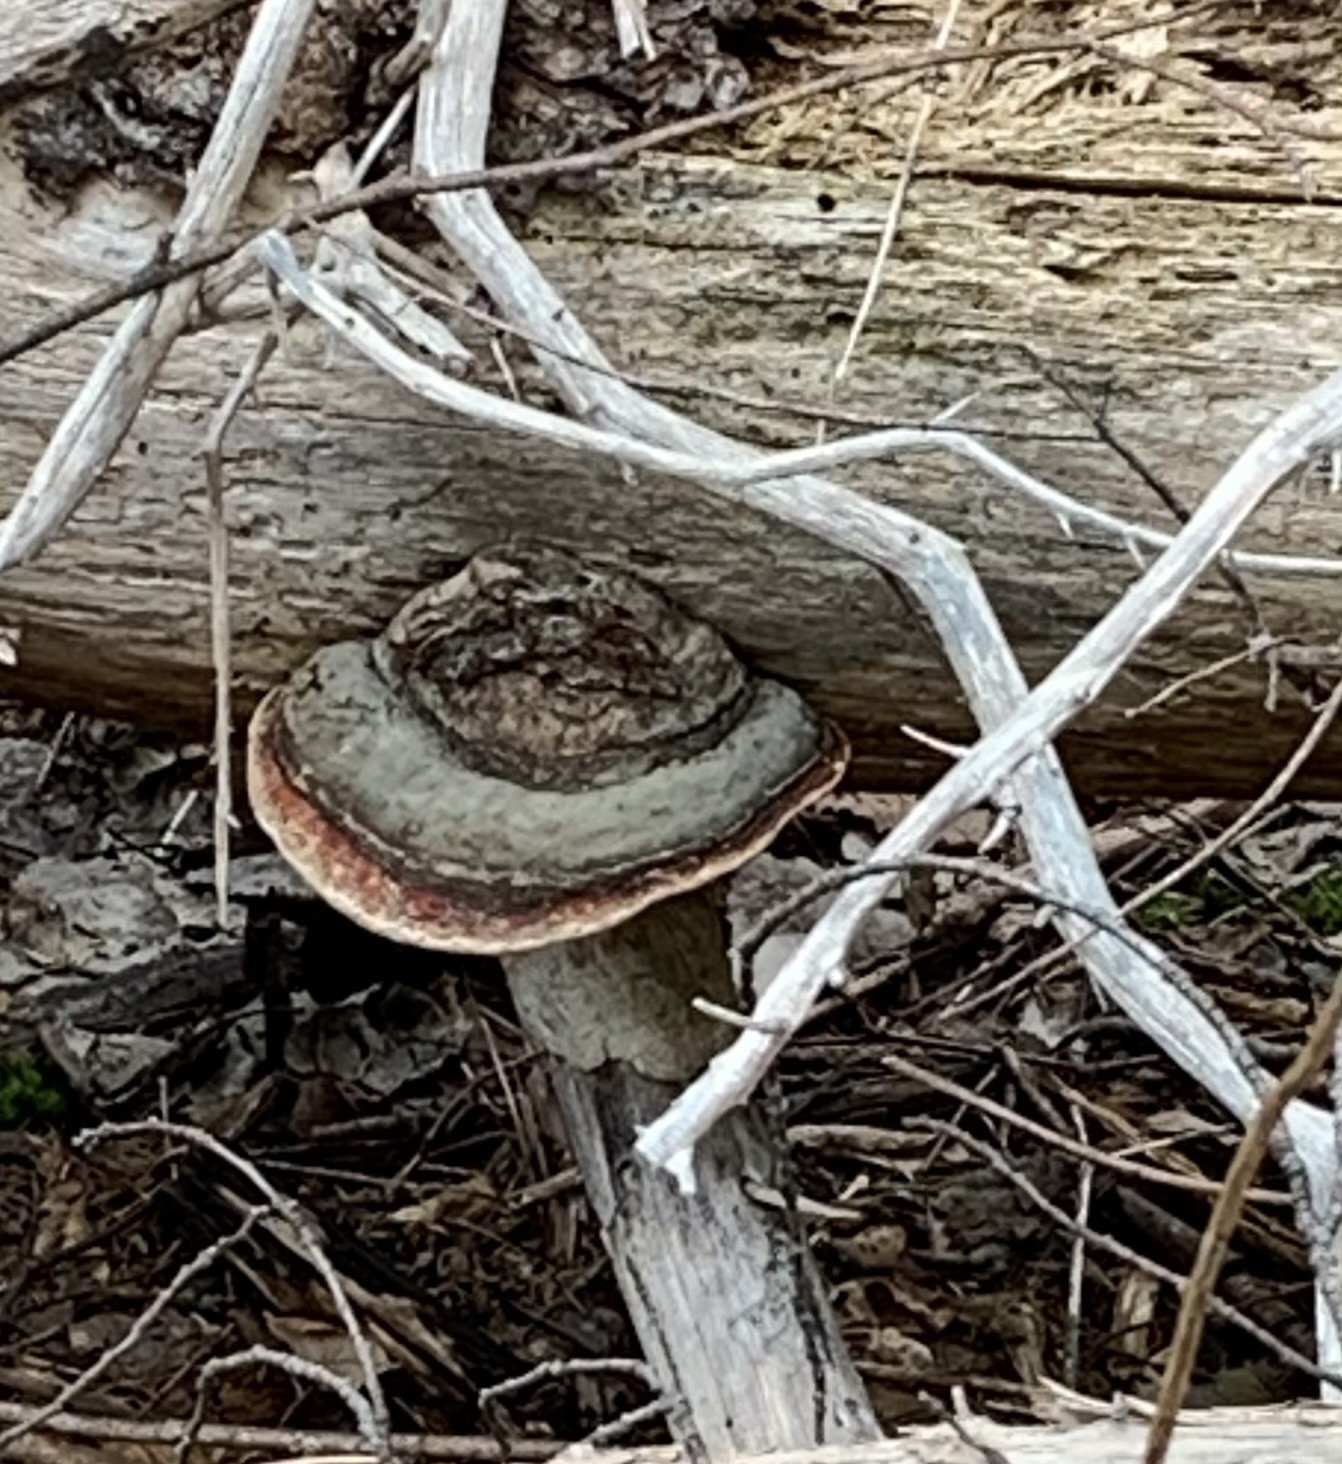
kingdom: Fungi
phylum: Basidiomycota
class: Agaricomycetes
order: Polyporales
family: Fomitopsidaceae
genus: Fomitopsis
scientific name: Fomitopsis mounceae
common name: Northern red belt
